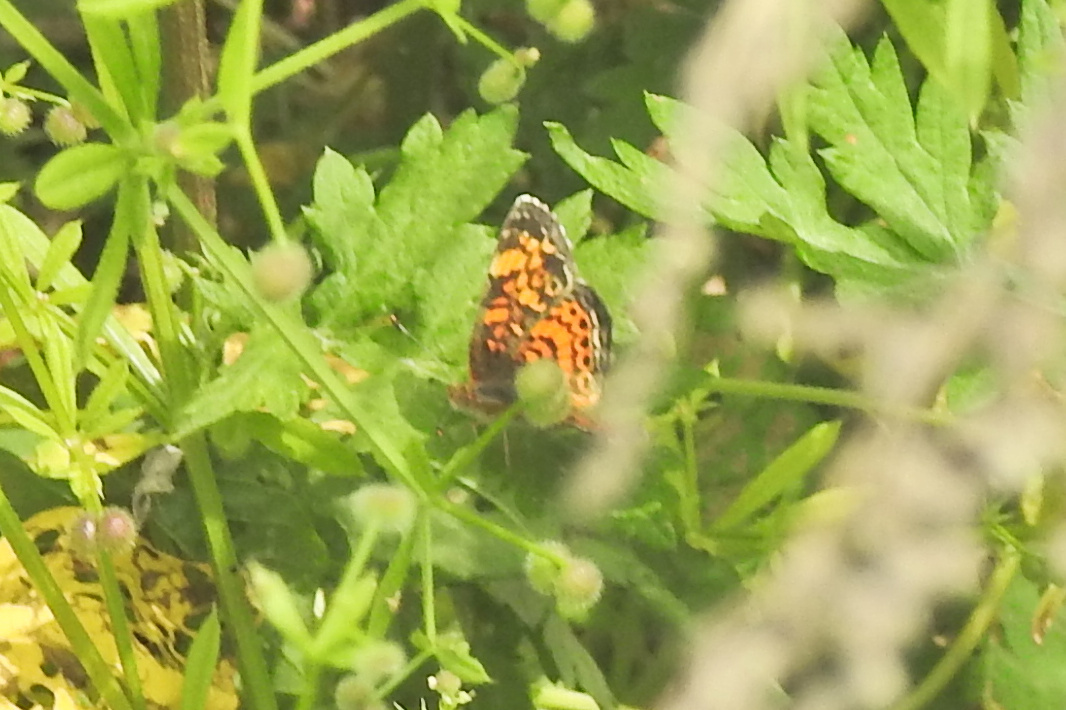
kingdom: Animalia
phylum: Arthropoda
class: Insecta
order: Lepidoptera
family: Nymphalidae
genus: Phyciodes
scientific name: Phyciodes tharos
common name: Pearl crescent
